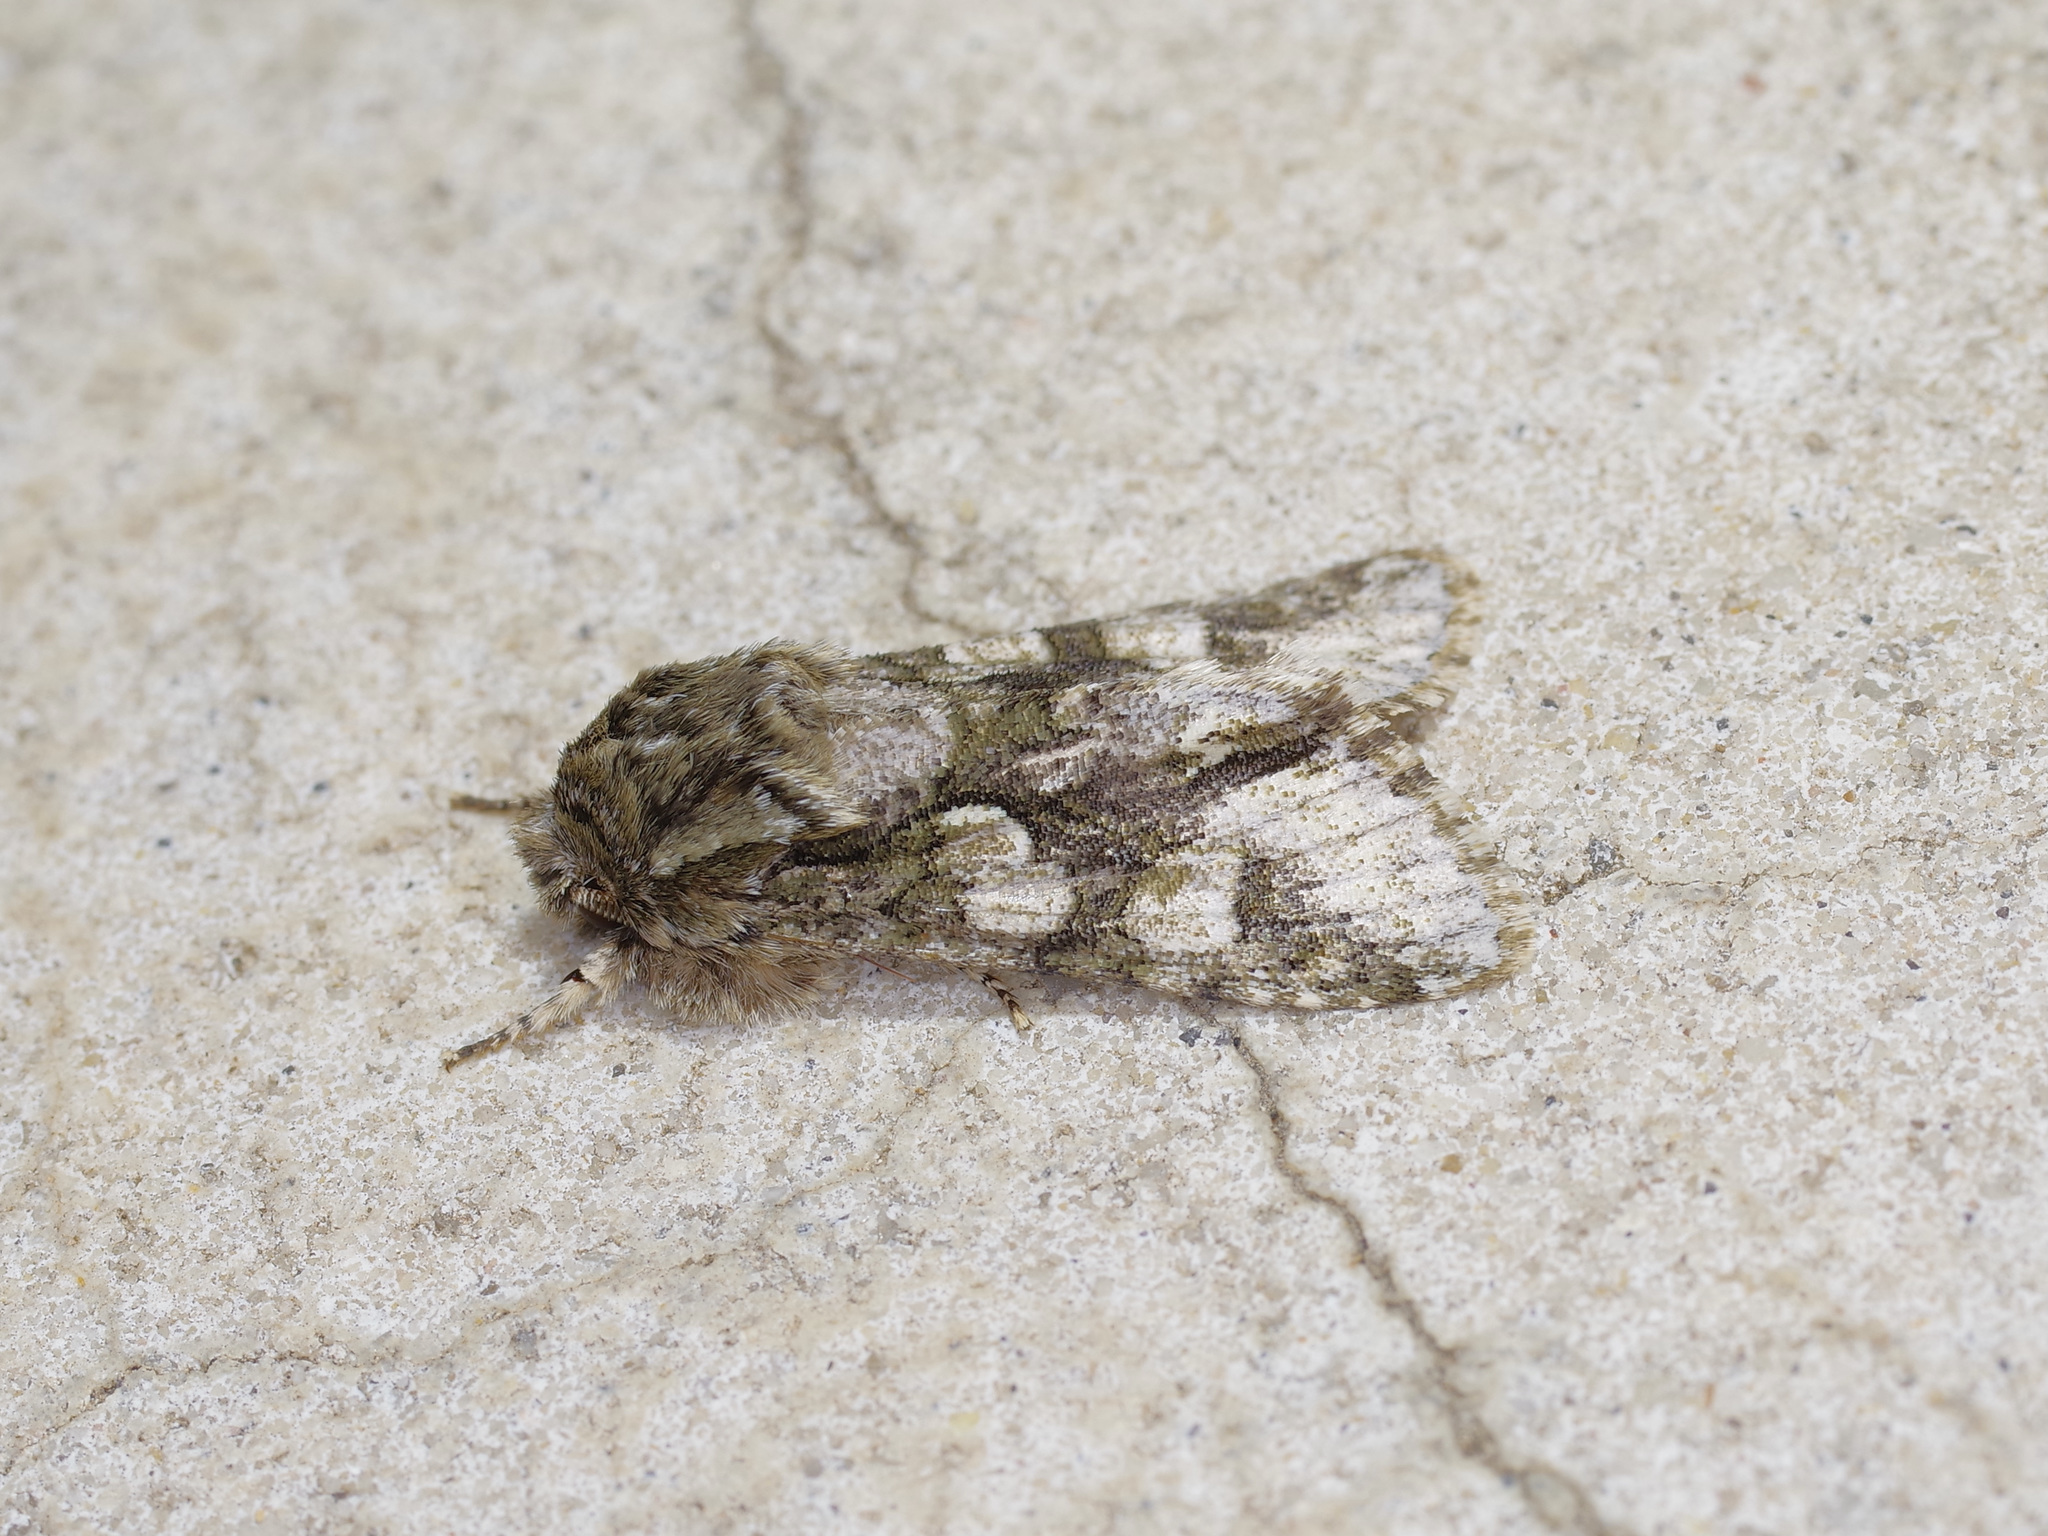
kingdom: Animalia
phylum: Arthropoda
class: Insecta
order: Lepidoptera
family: Noctuidae
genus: Psaphida
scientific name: Psaphida resumens
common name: Figure-eight sallow
